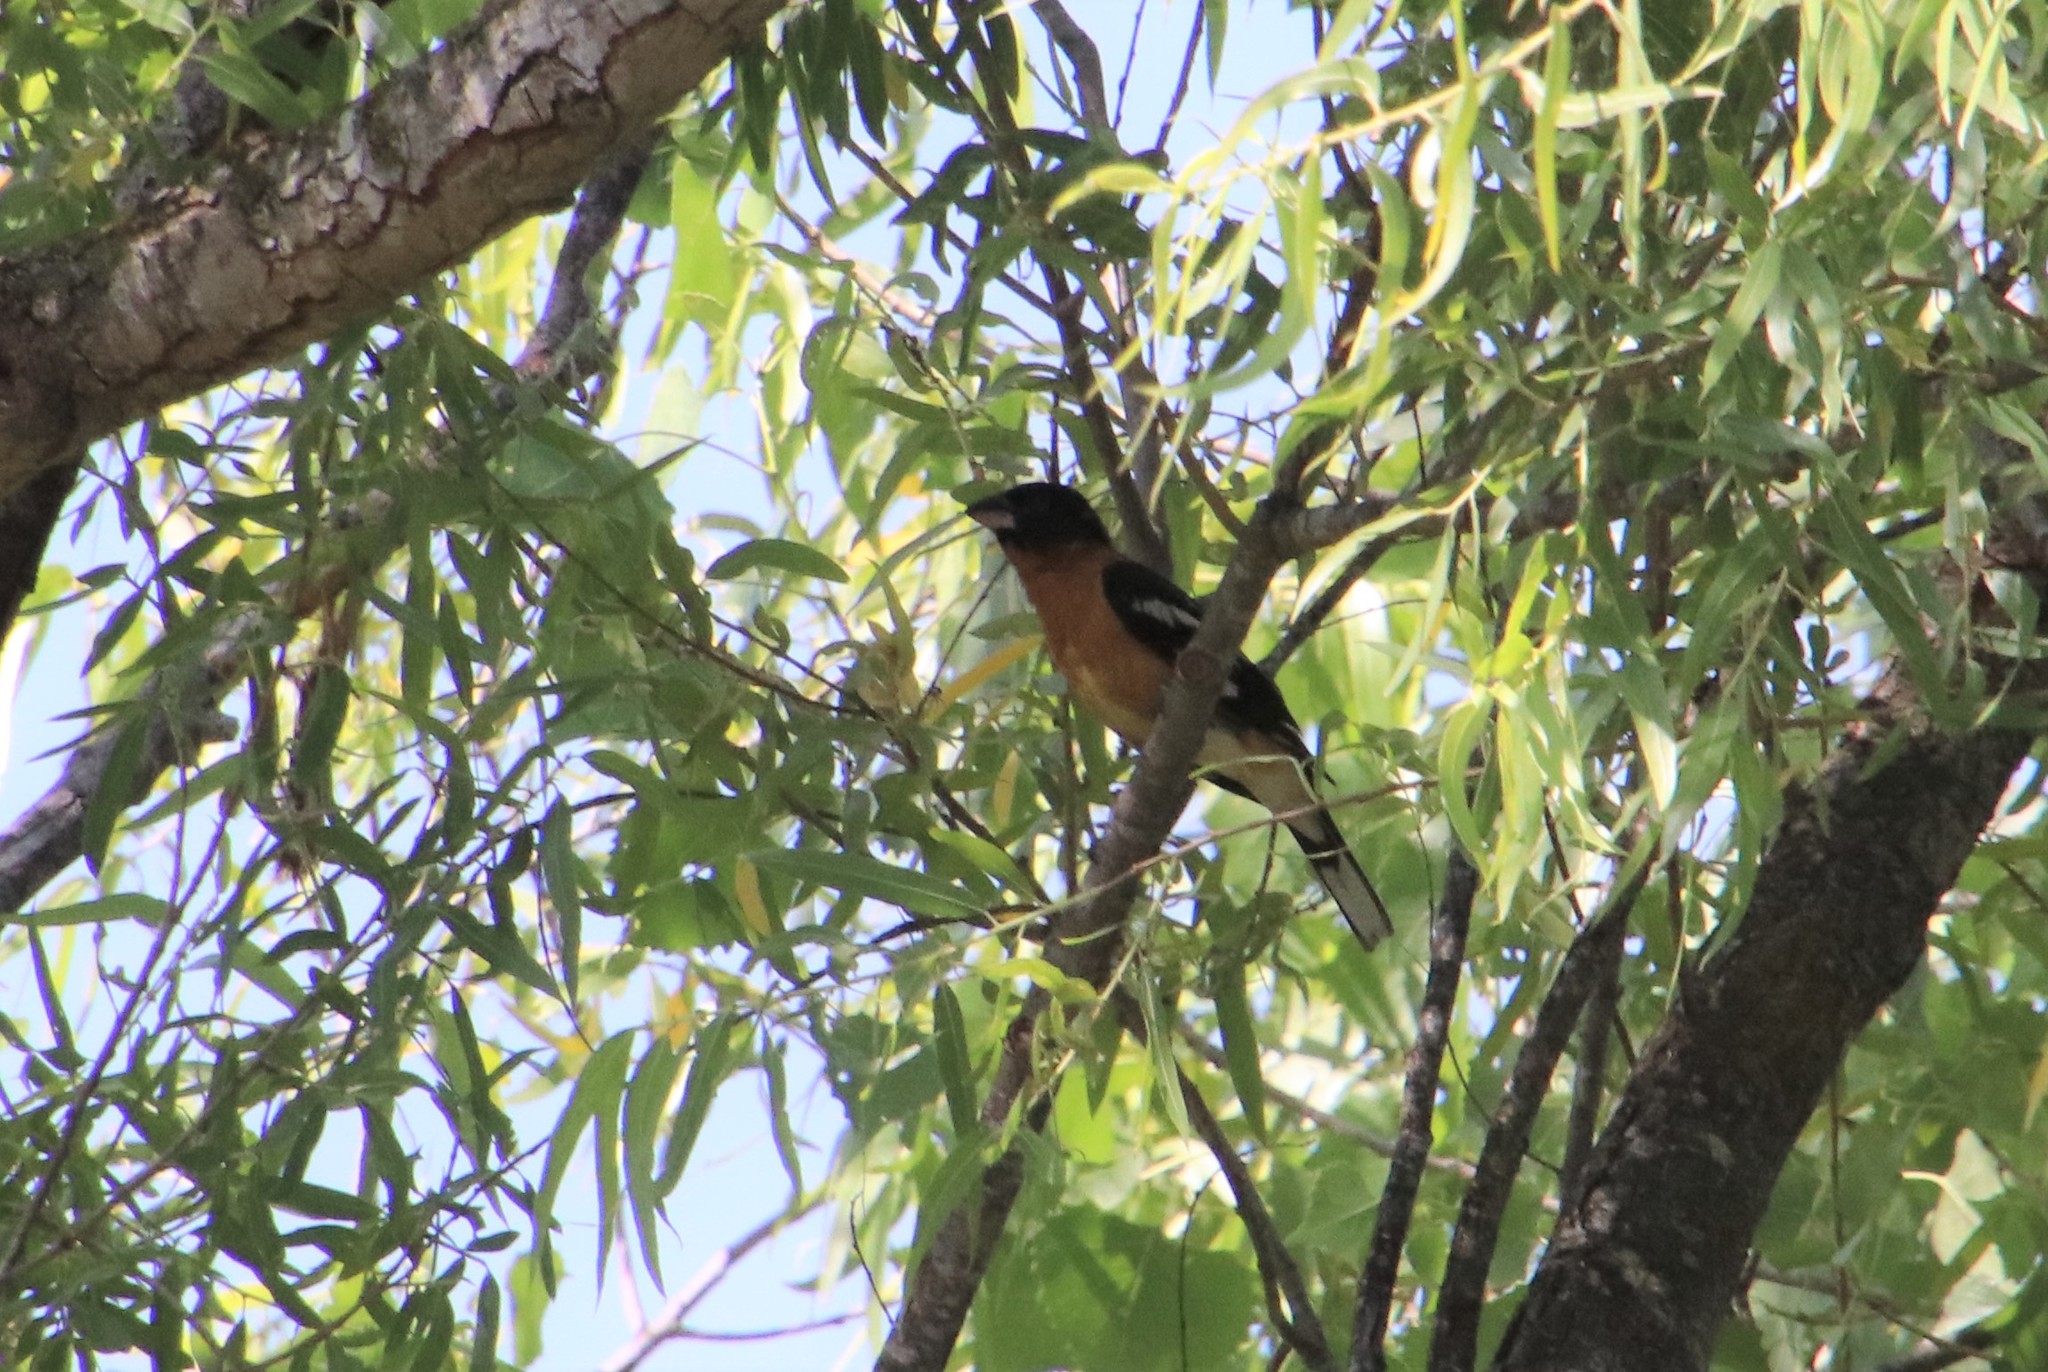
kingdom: Animalia
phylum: Chordata
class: Aves
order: Passeriformes
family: Cardinalidae
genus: Pheucticus
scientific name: Pheucticus melanocephalus
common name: Black-headed grosbeak
